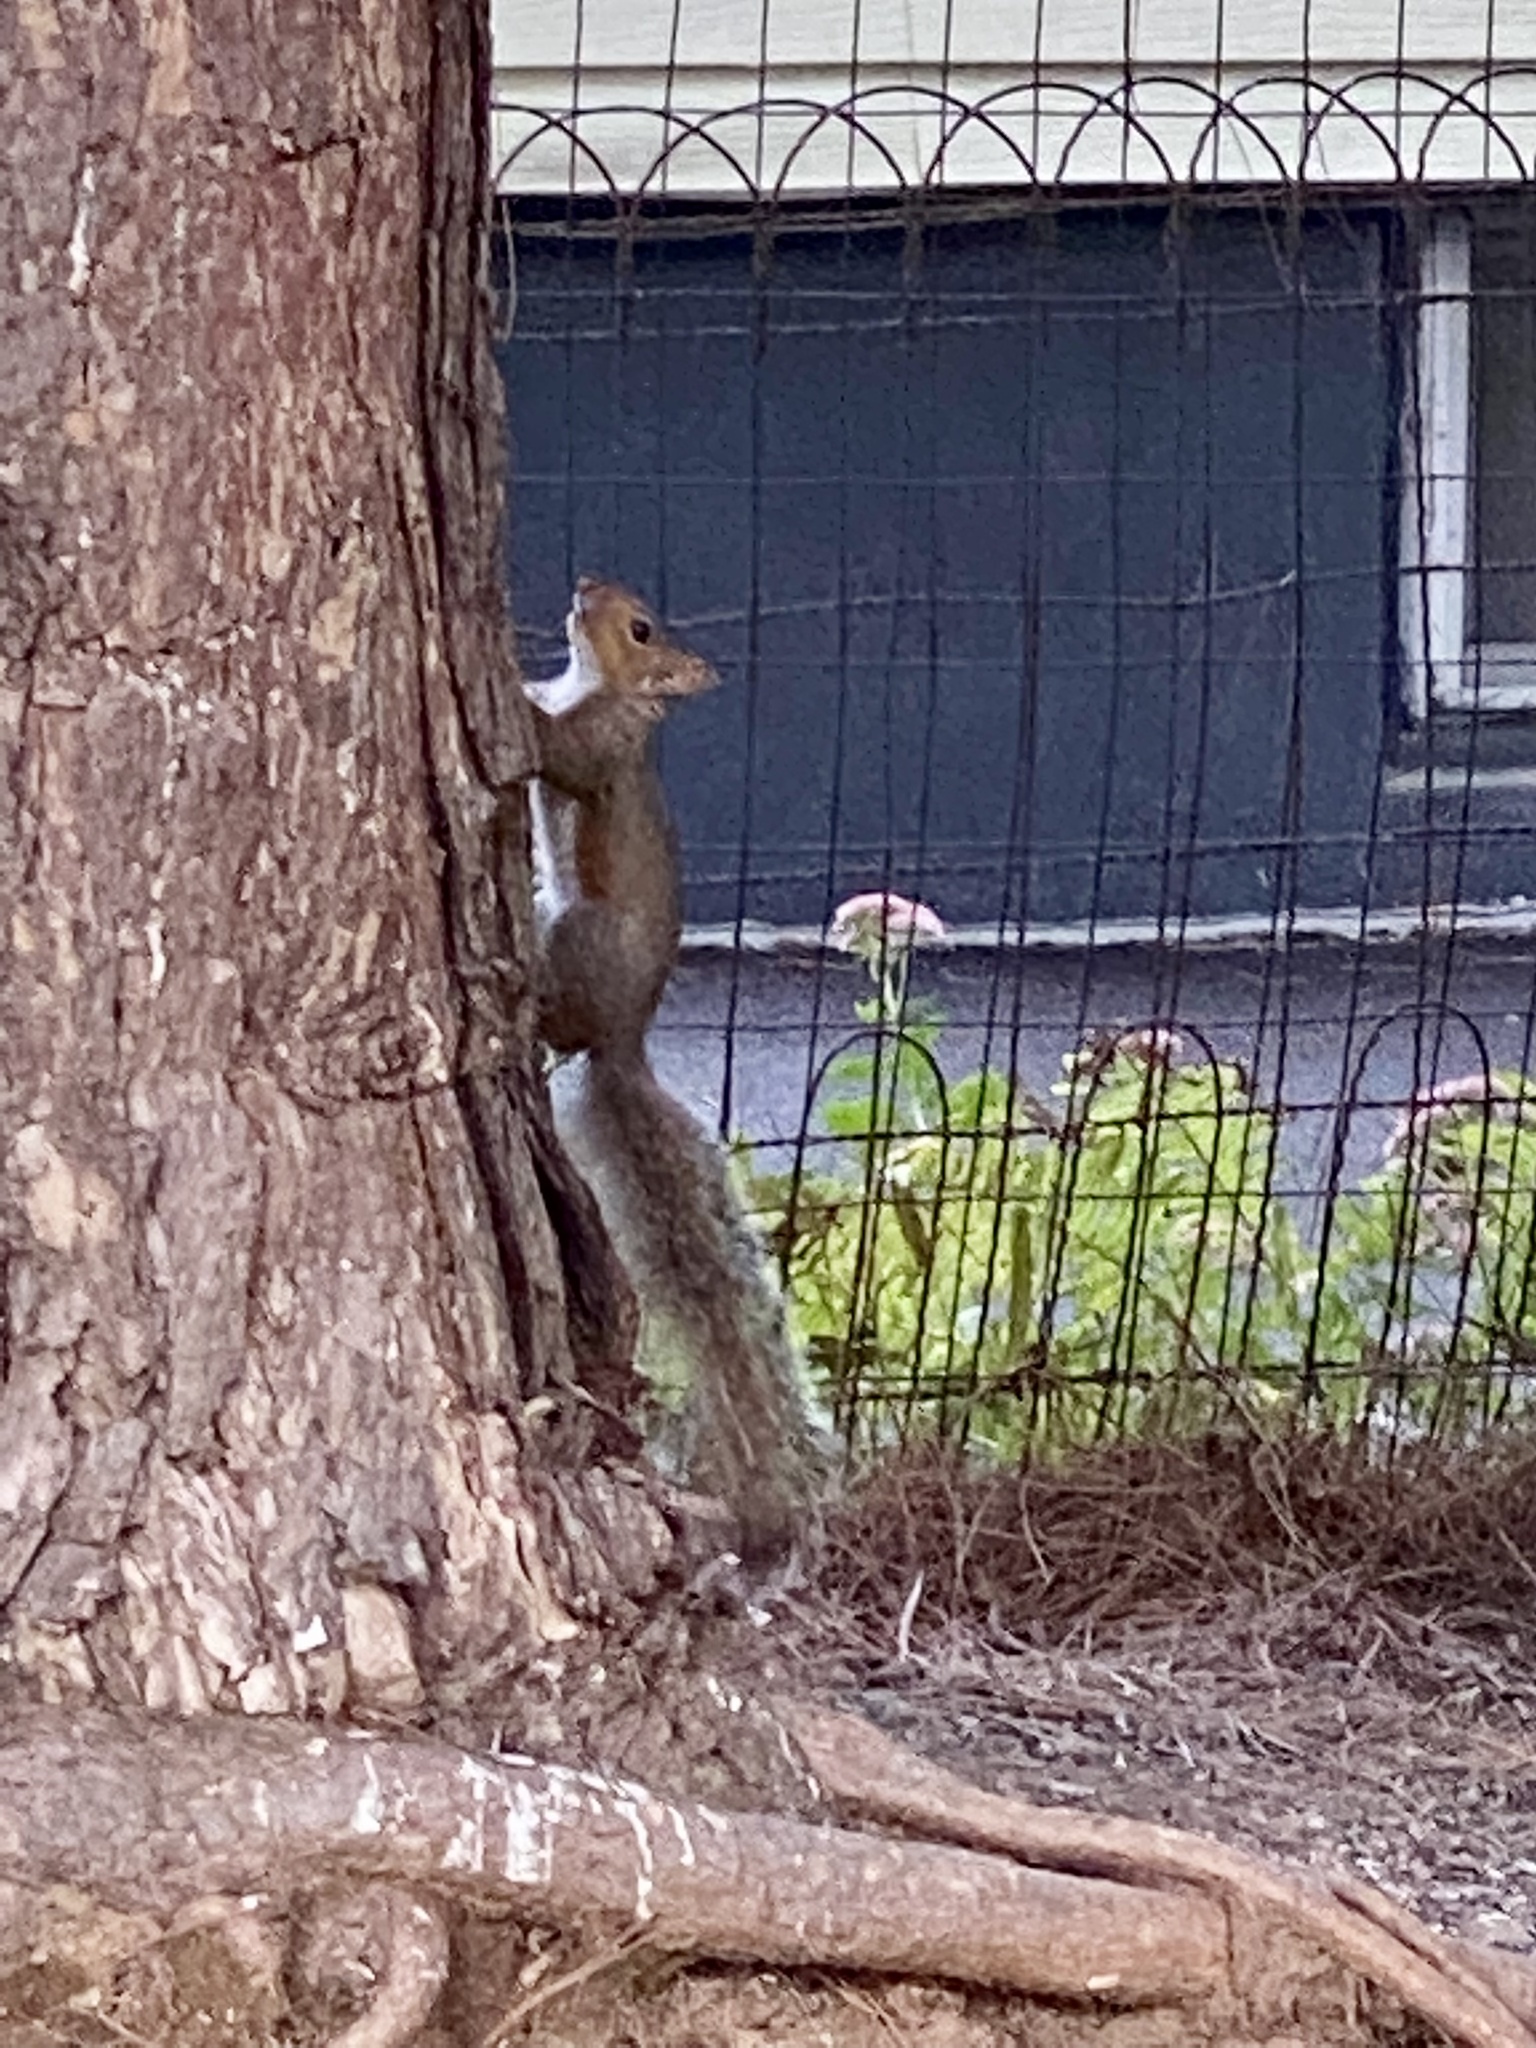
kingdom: Animalia
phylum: Chordata
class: Mammalia
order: Rodentia
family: Sciuridae
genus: Sciurus
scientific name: Sciurus carolinensis
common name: Eastern gray squirrel
